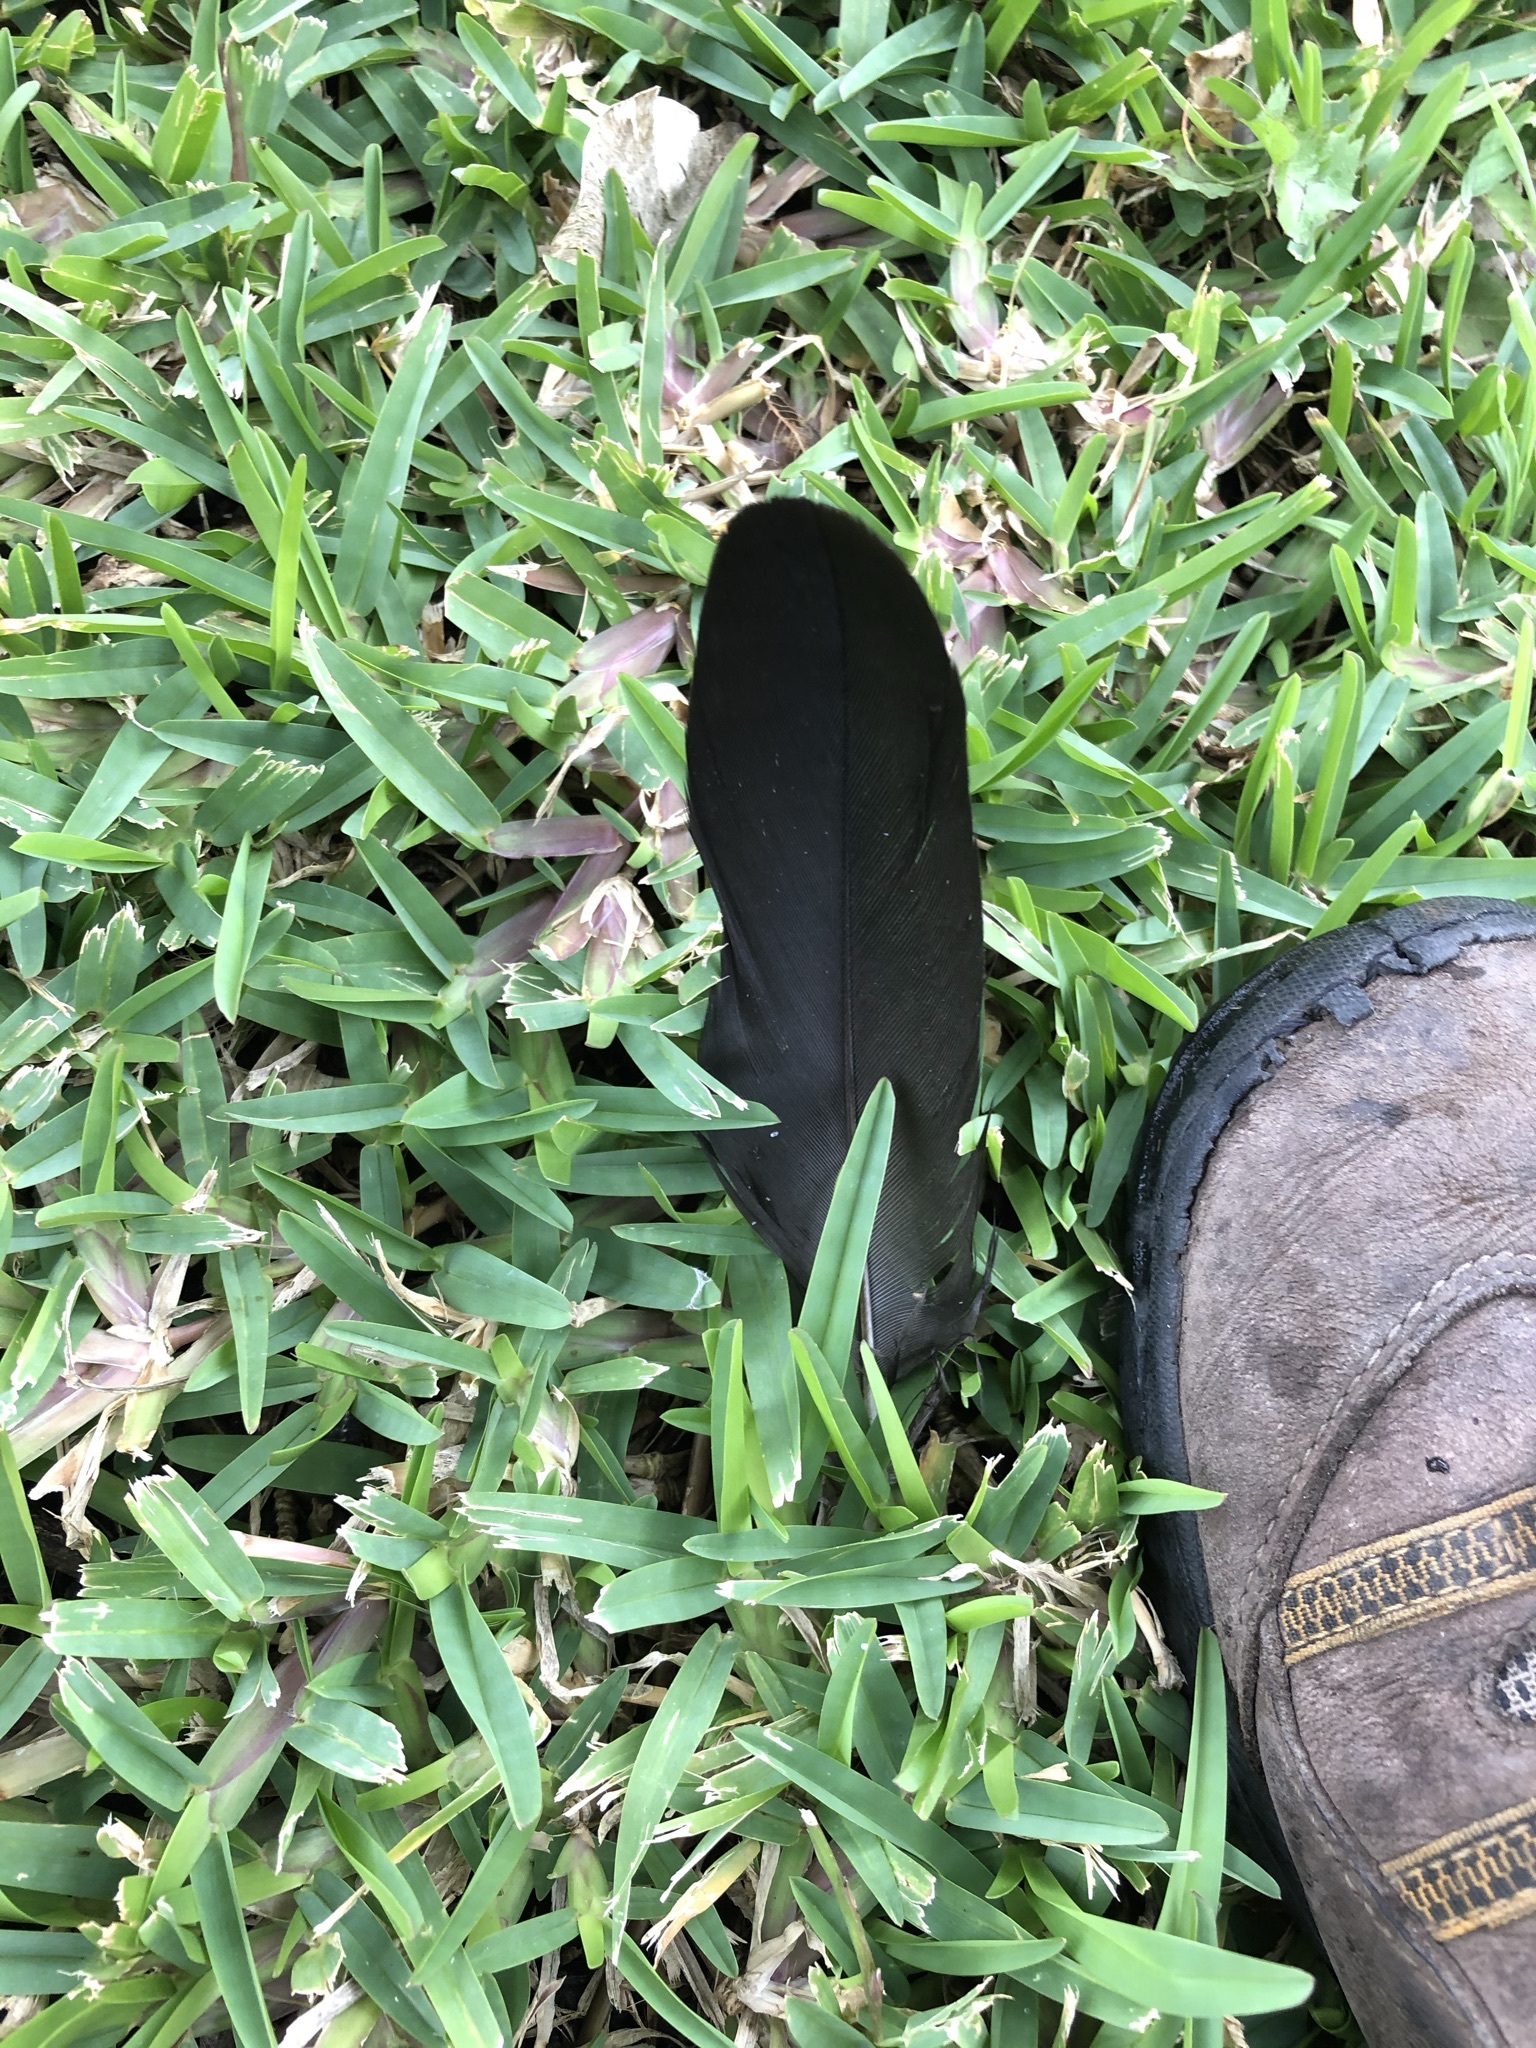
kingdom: Animalia
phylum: Chordata
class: Aves
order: Accipitriformes
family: Cathartidae
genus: Coragyps
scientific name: Coragyps atratus
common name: Black vulture
